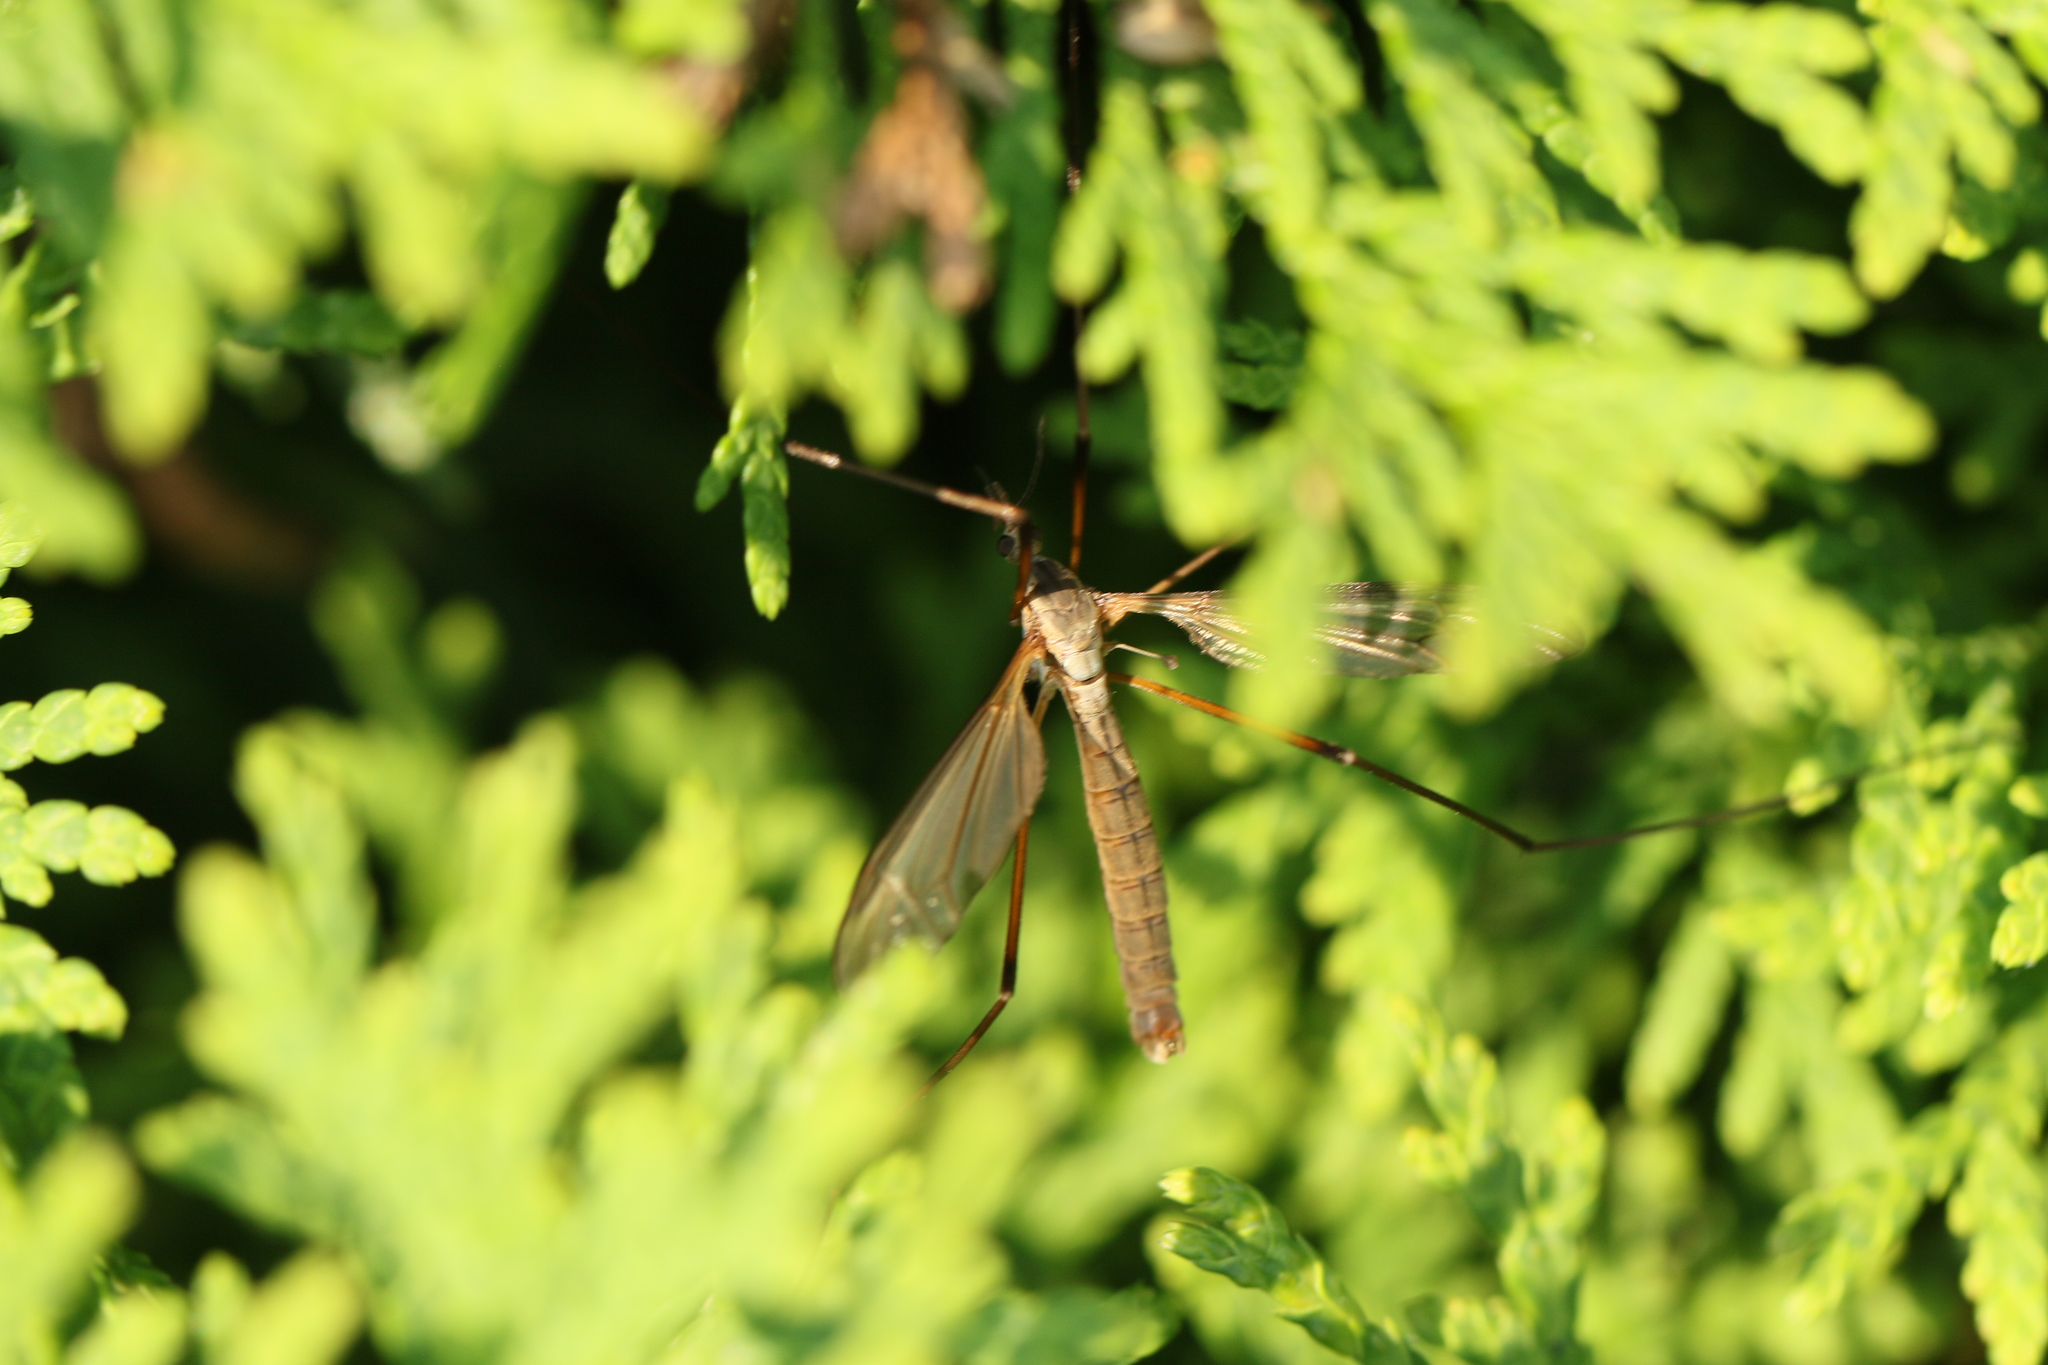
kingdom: Animalia
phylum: Arthropoda
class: Insecta
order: Diptera
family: Tipulidae
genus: Tipula
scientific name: Tipula paludosa
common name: European cranefly
